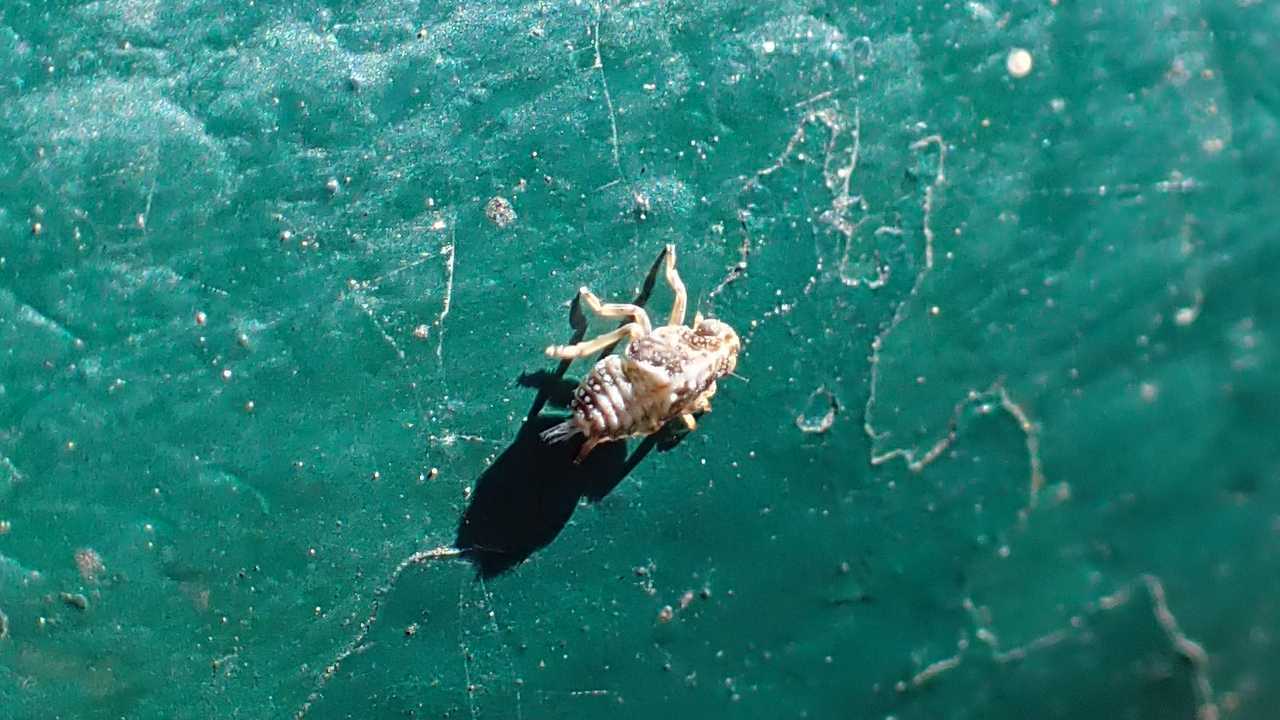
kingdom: Animalia
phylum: Arthropoda
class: Insecta
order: Hemiptera
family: Issidae
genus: Issus
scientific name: Issus
